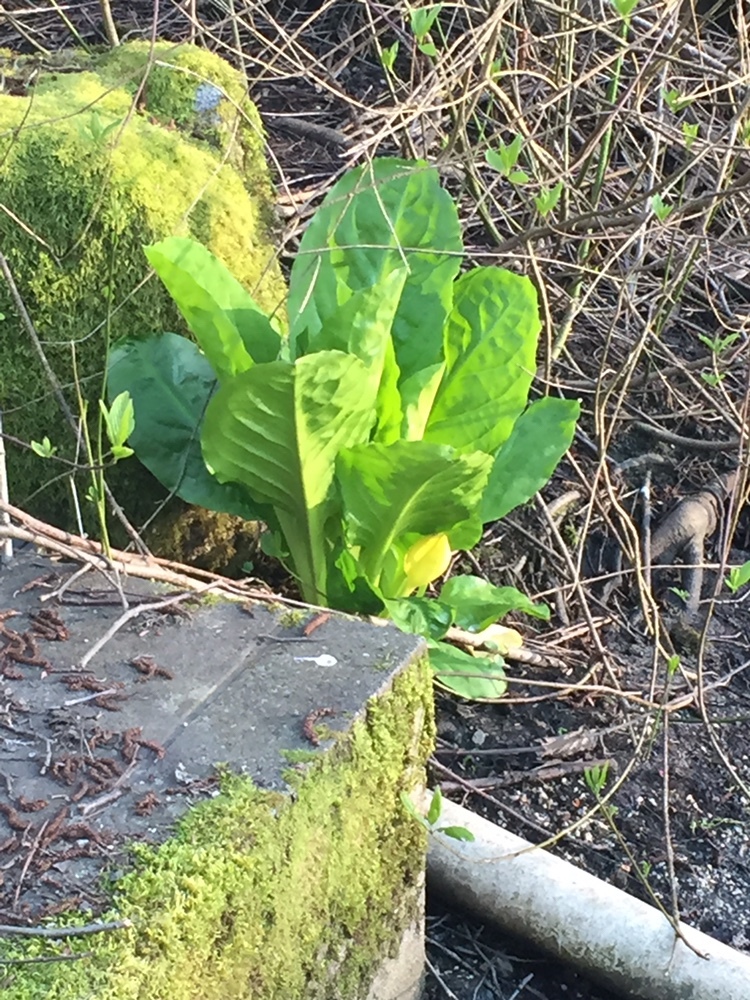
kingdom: Plantae
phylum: Tracheophyta
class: Liliopsida
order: Alismatales
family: Araceae
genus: Lysichiton
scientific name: Lysichiton americanus
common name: American skunk cabbage
